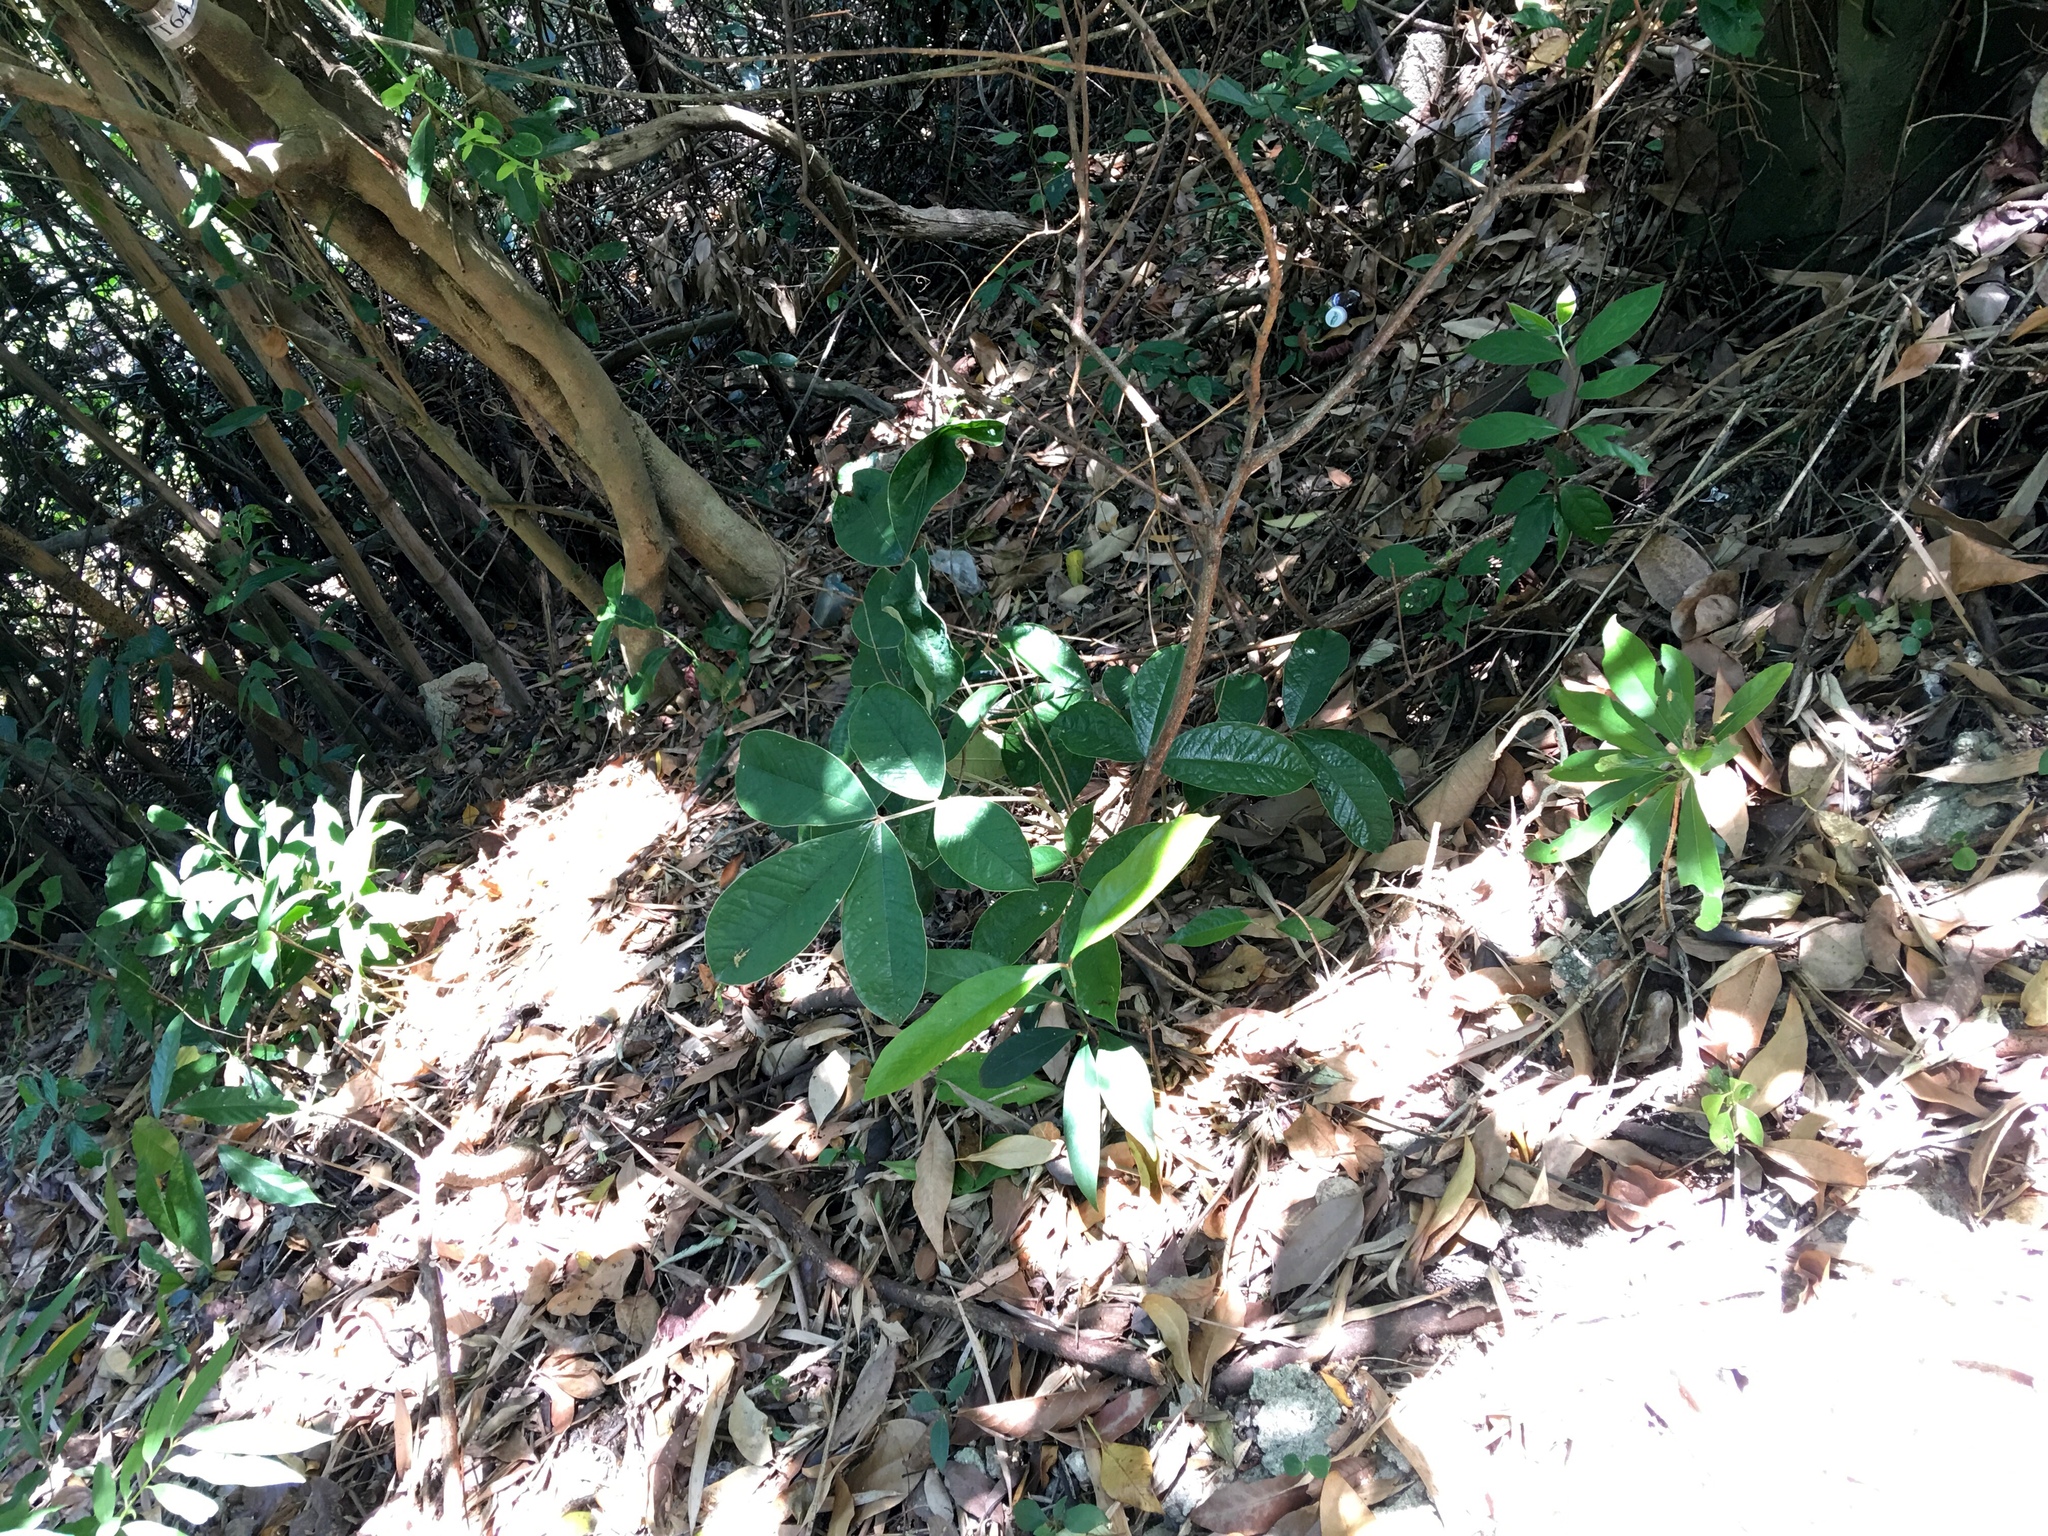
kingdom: Plantae
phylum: Tracheophyta
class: Magnoliopsida
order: Fabales
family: Fabaceae
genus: Ormosia
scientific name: Ormosia pachycarpa
